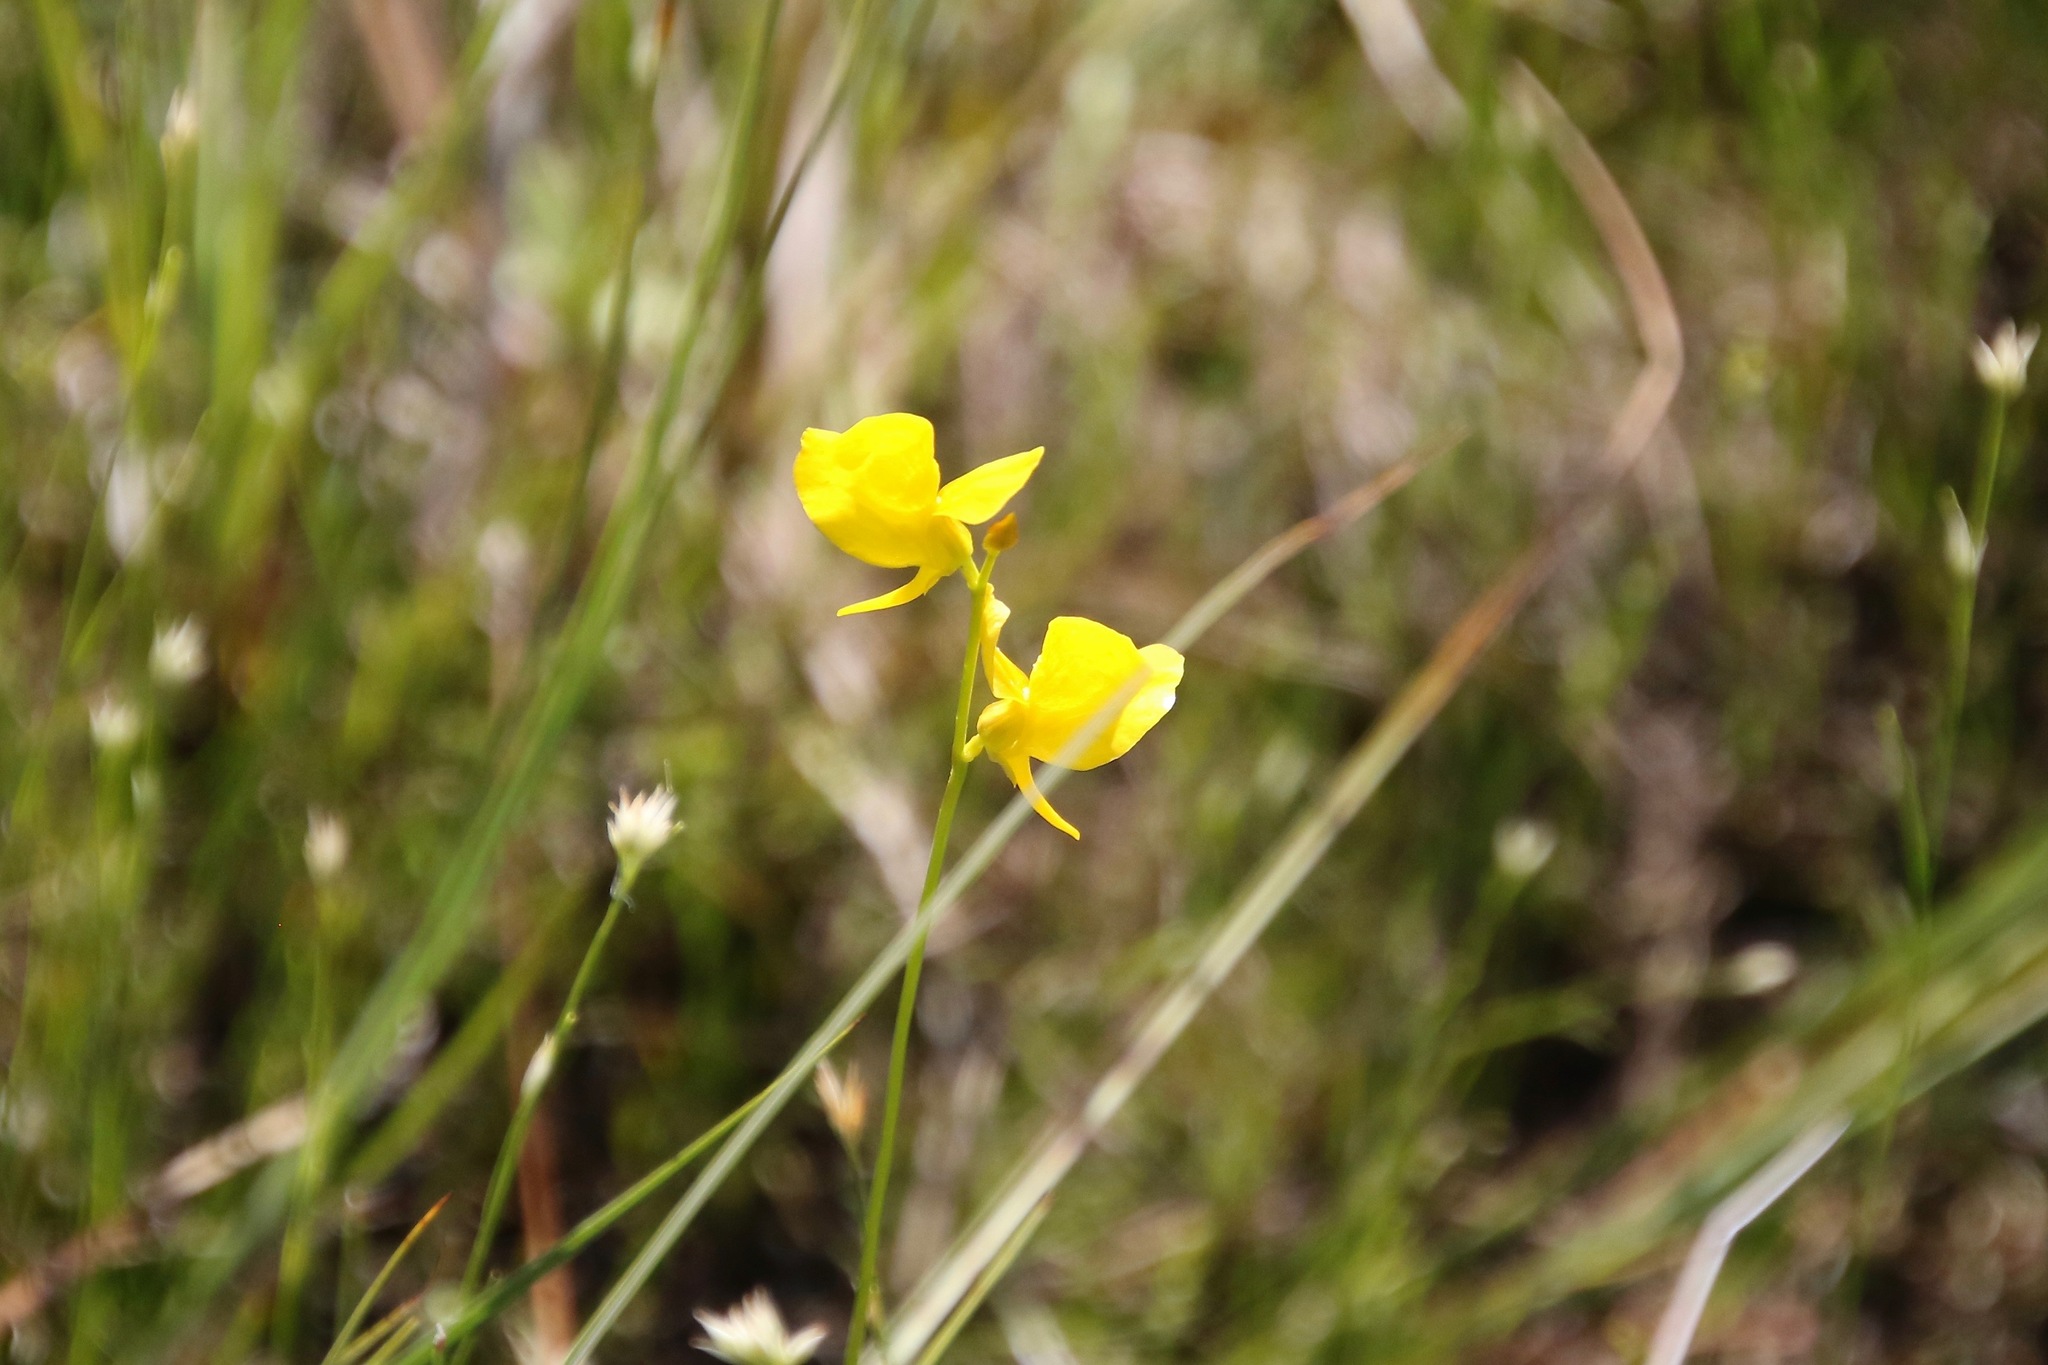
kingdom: Plantae
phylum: Tracheophyta
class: Magnoliopsida
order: Lamiales
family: Lentibulariaceae
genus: Utricularia
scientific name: Utricularia cornuta
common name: Horned bladderwort
